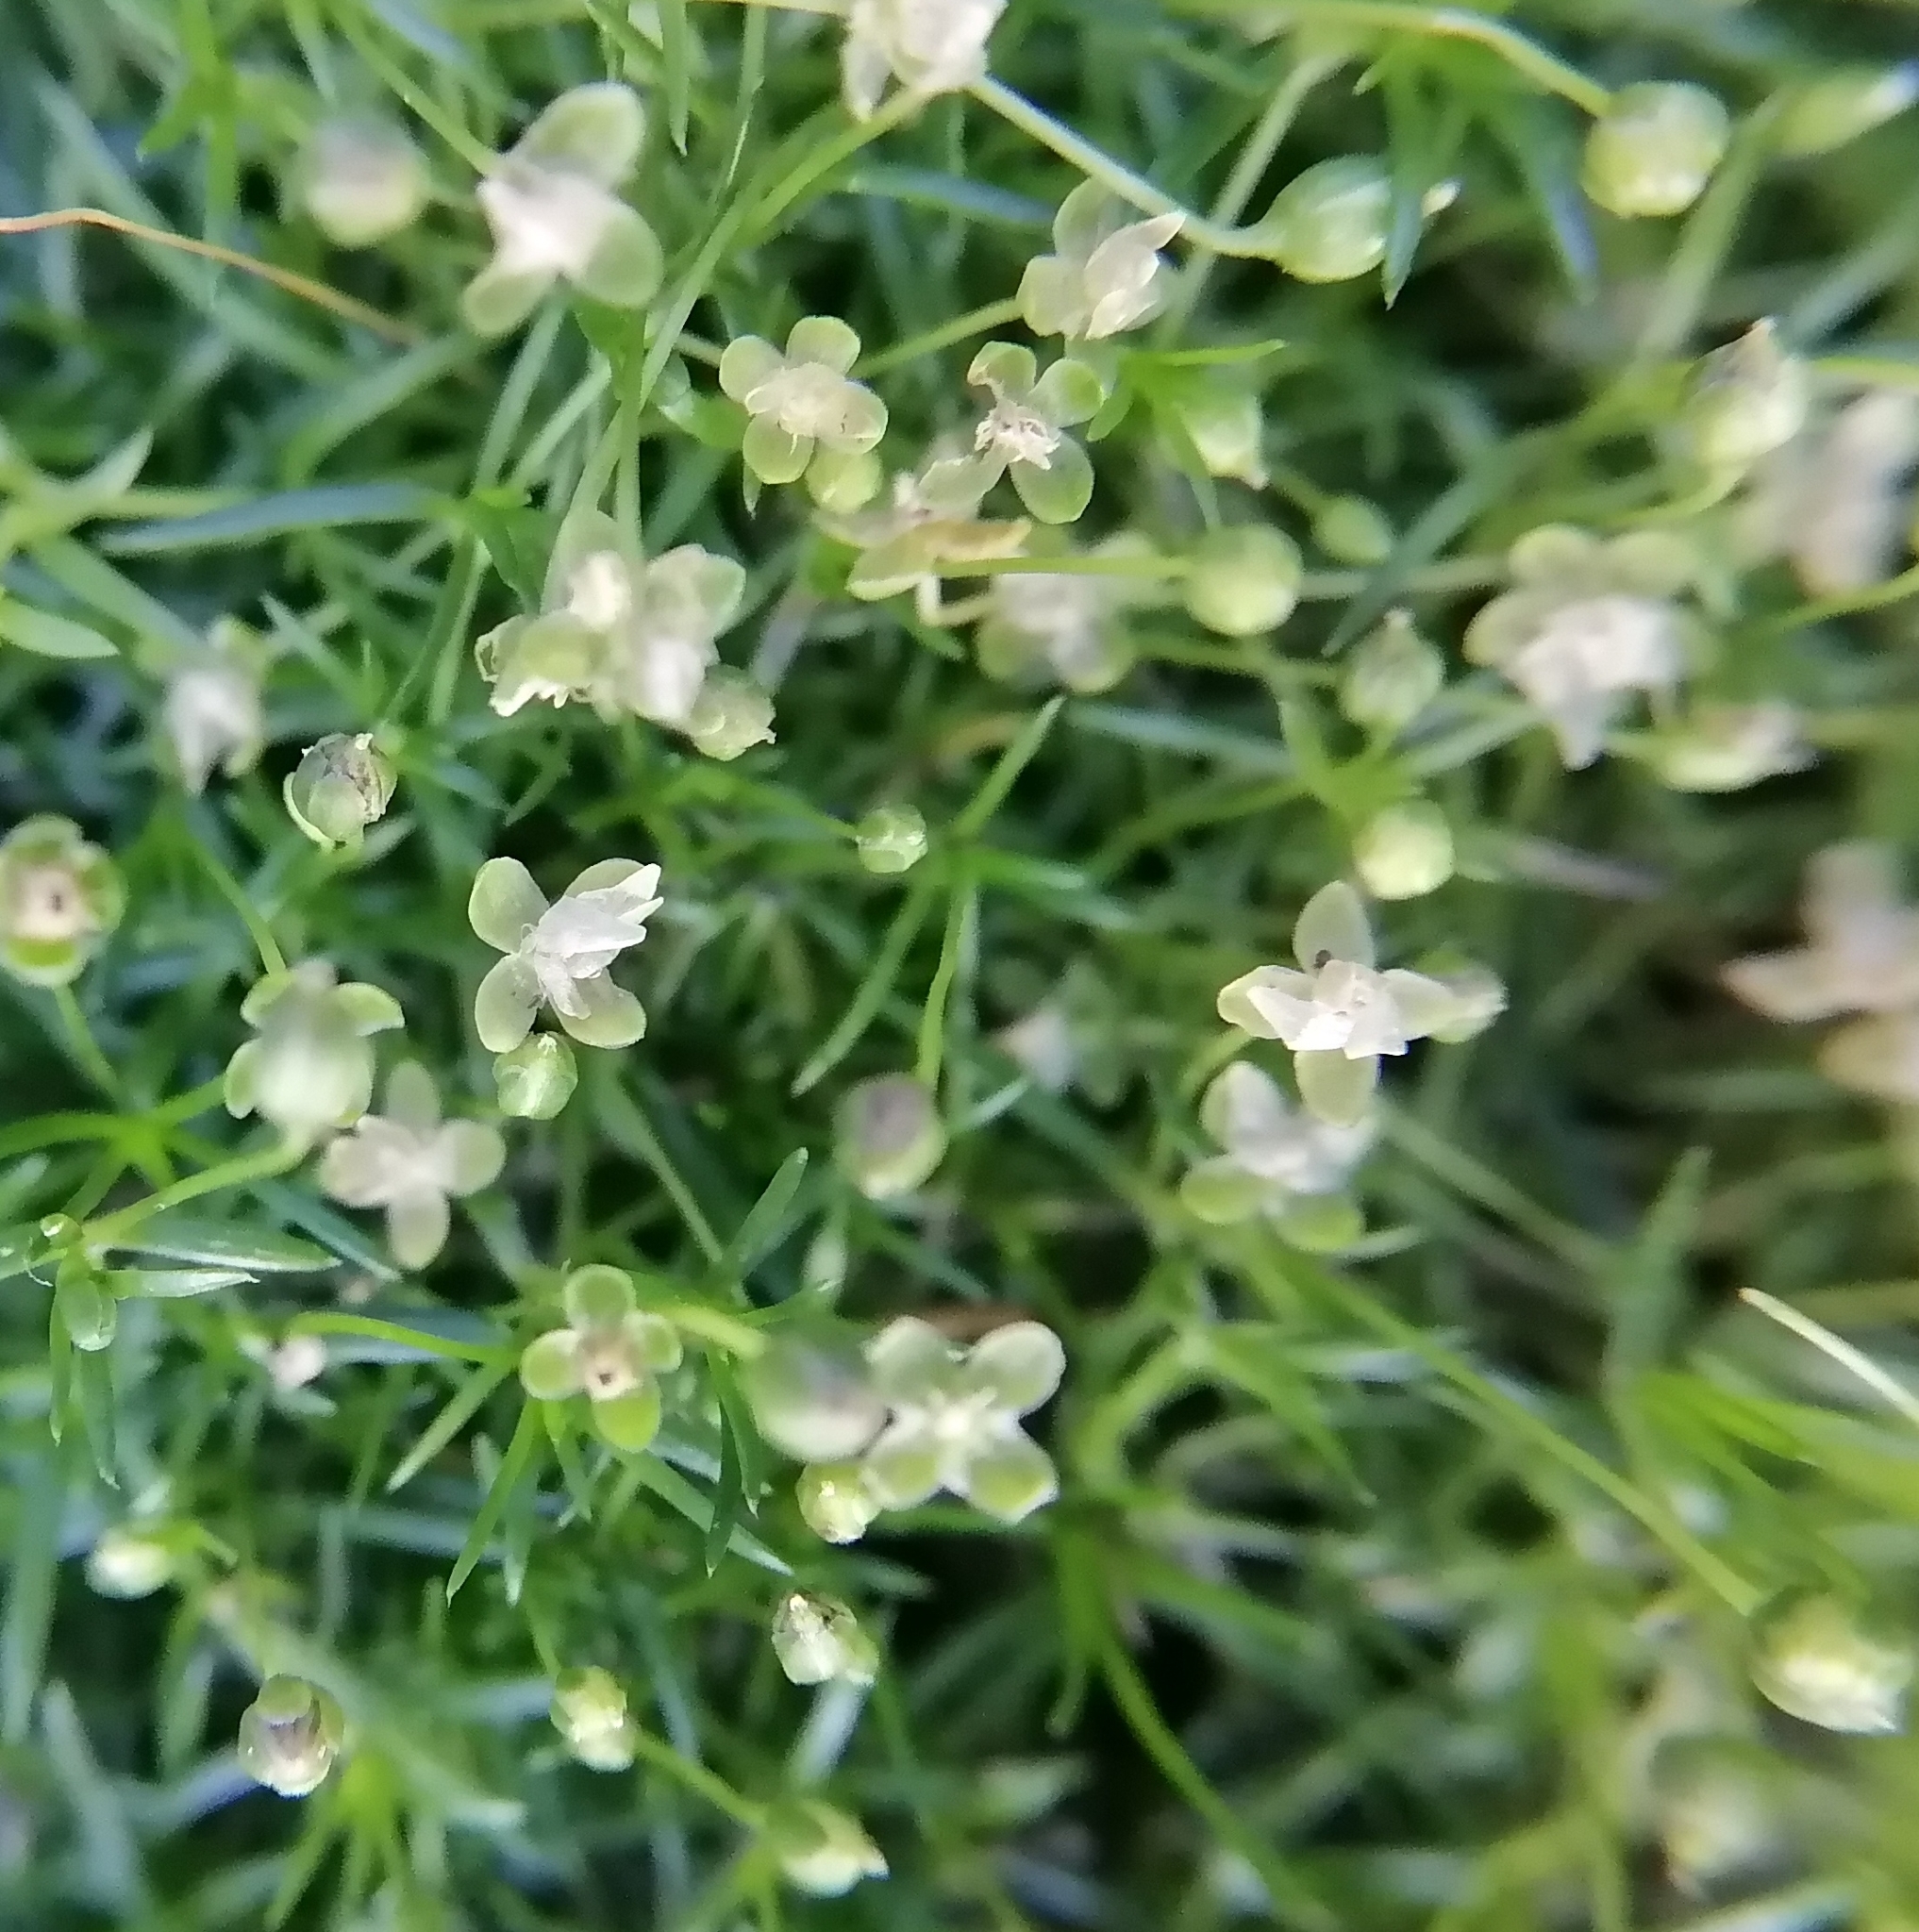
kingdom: Plantae
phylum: Tracheophyta
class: Magnoliopsida
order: Caryophyllales
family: Caryophyllaceae
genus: Sagina
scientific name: Sagina procumbens
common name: Procumbent pearlwort
